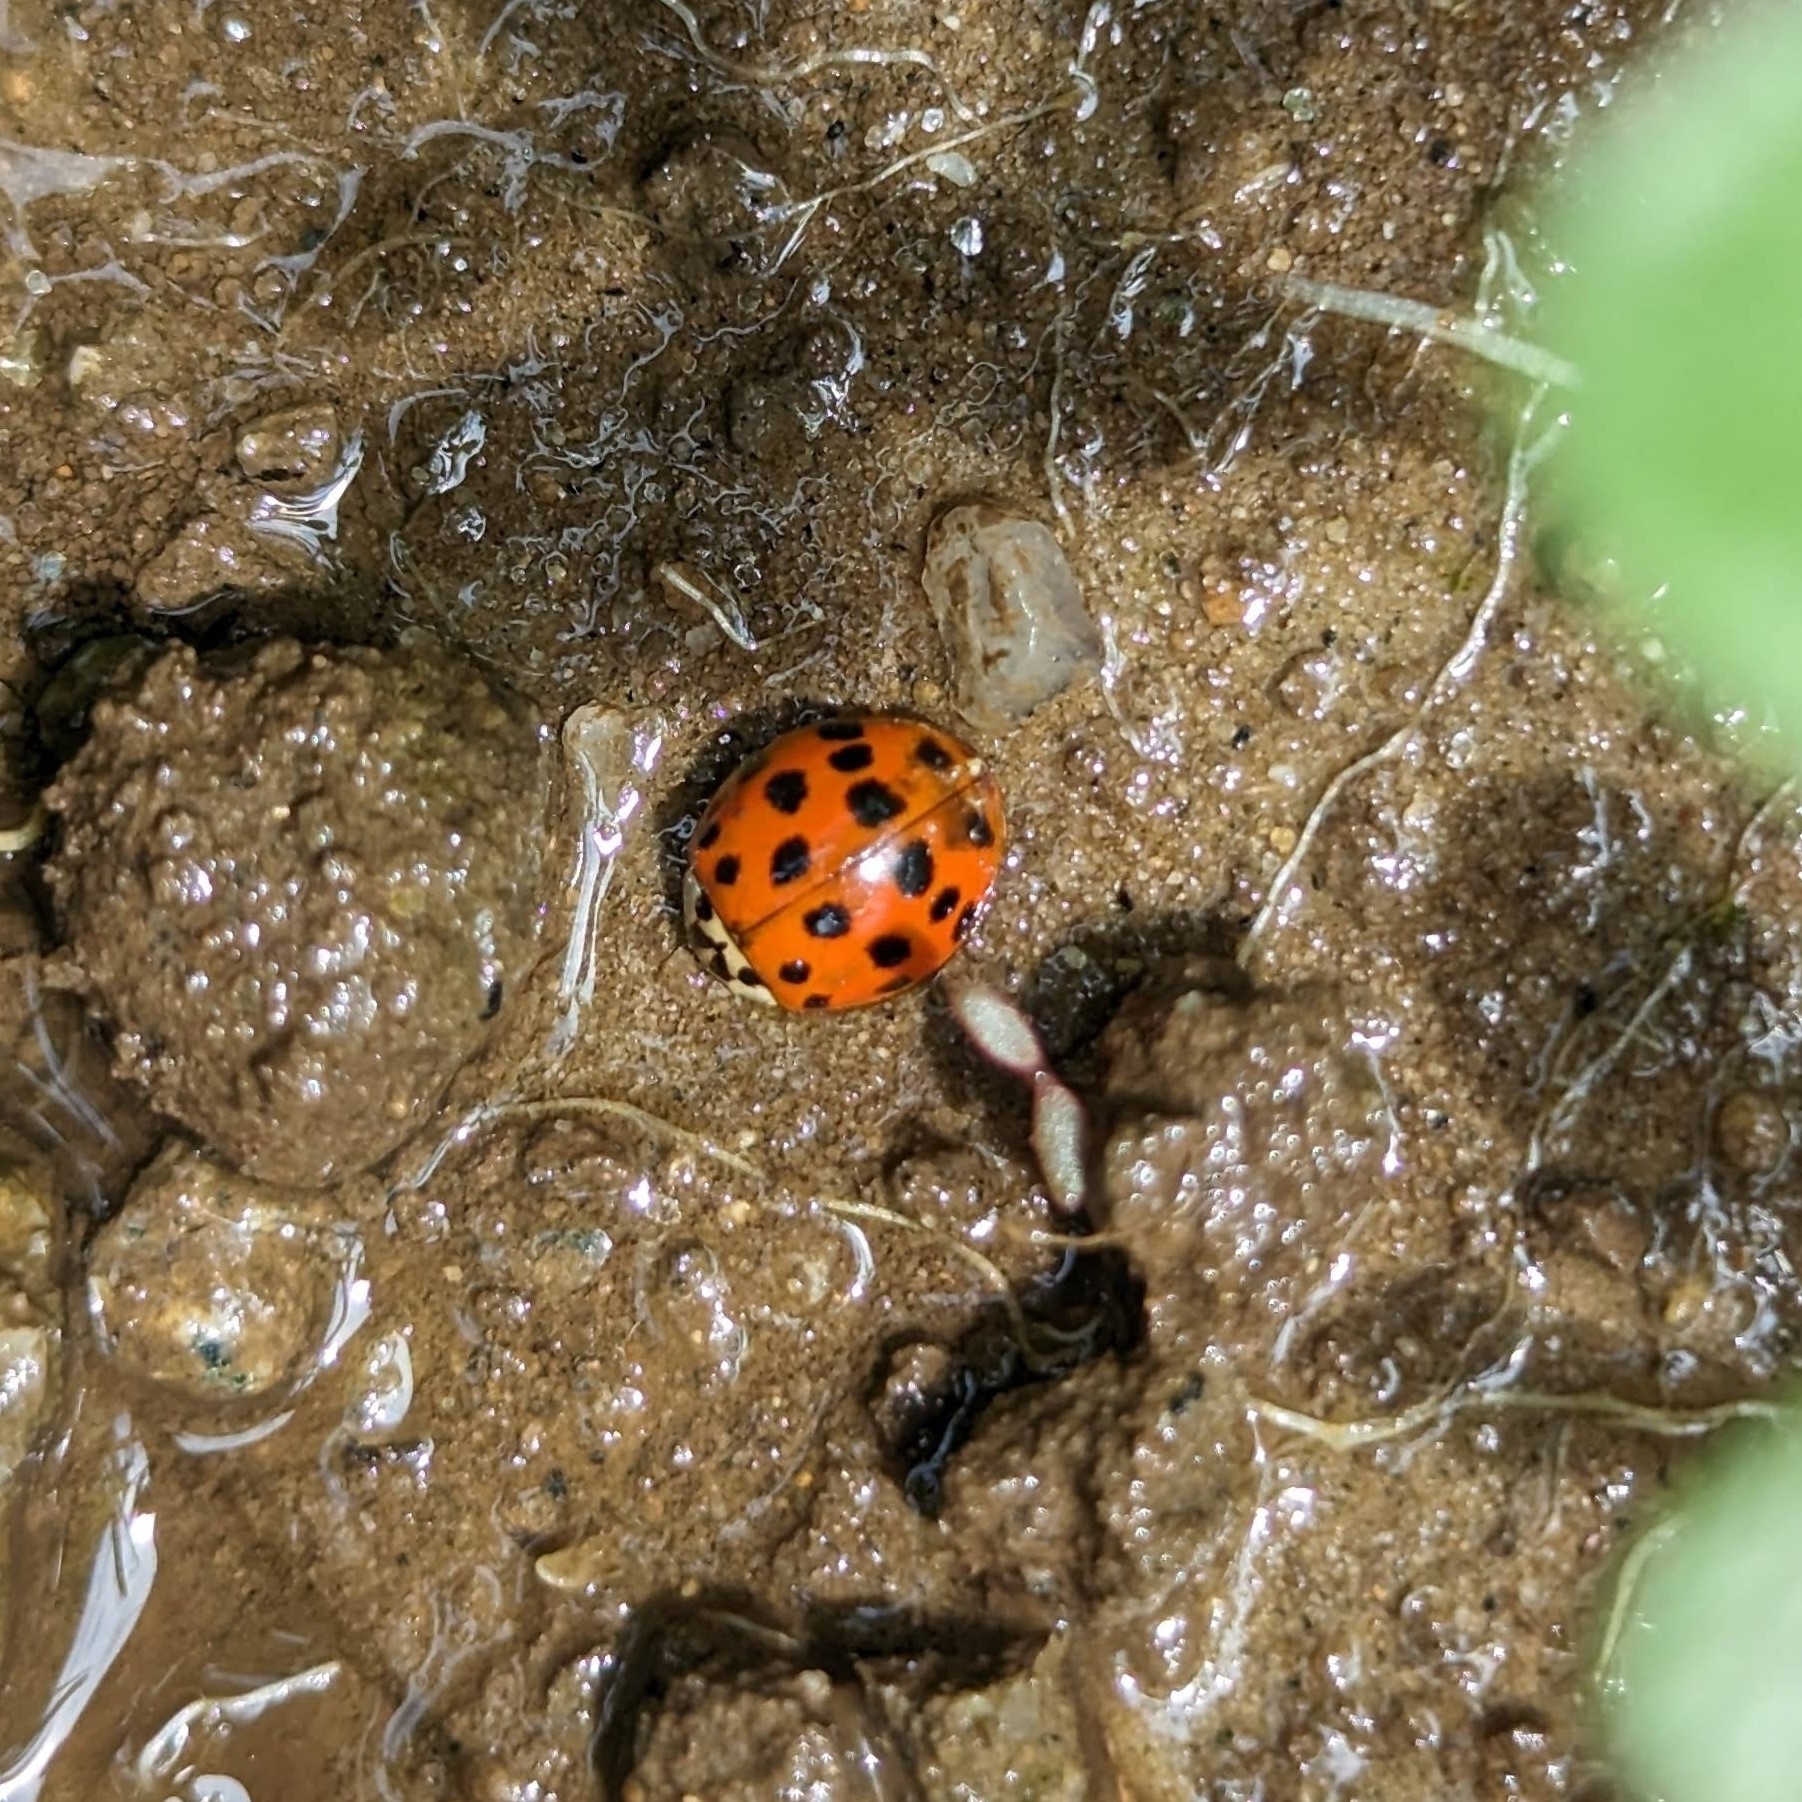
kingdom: Animalia
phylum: Arthropoda
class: Insecta
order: Coleoptera
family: Coccinellidae
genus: Harmonia
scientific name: Harmonia axyridis
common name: Harlequin ladybird
